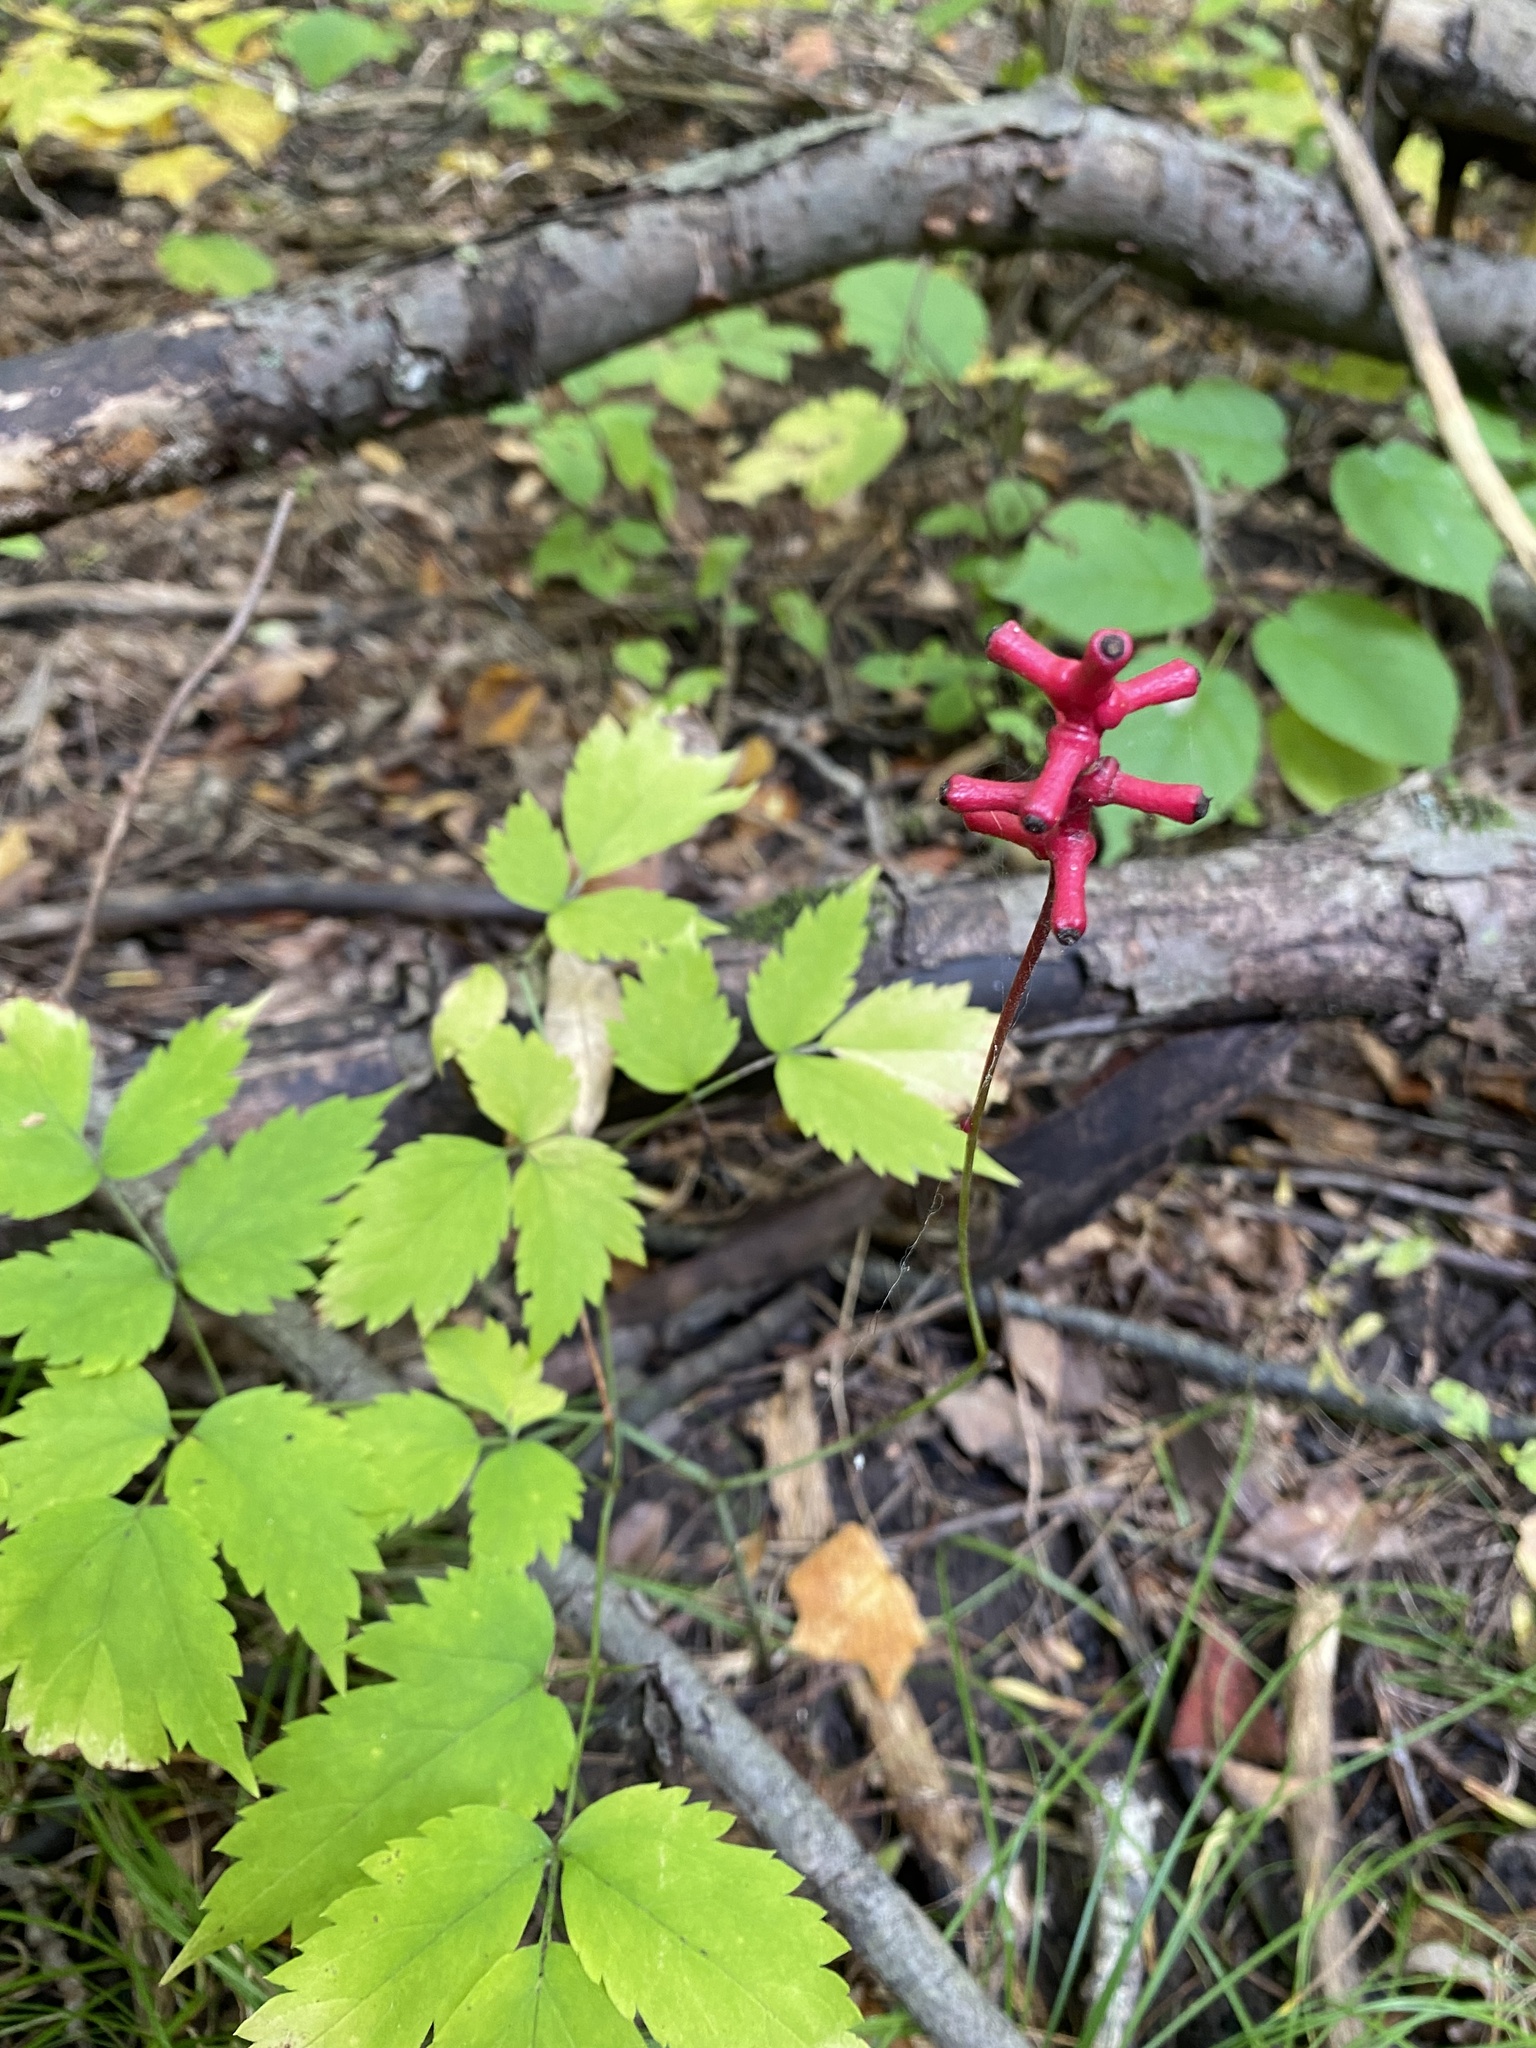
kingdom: Plantae
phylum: Tracheophyta
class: Magnoliopsida
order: Ranunculales
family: Ranunculaceae
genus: Actaea
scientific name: Actaea pachypoda
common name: Doll's-eyes
